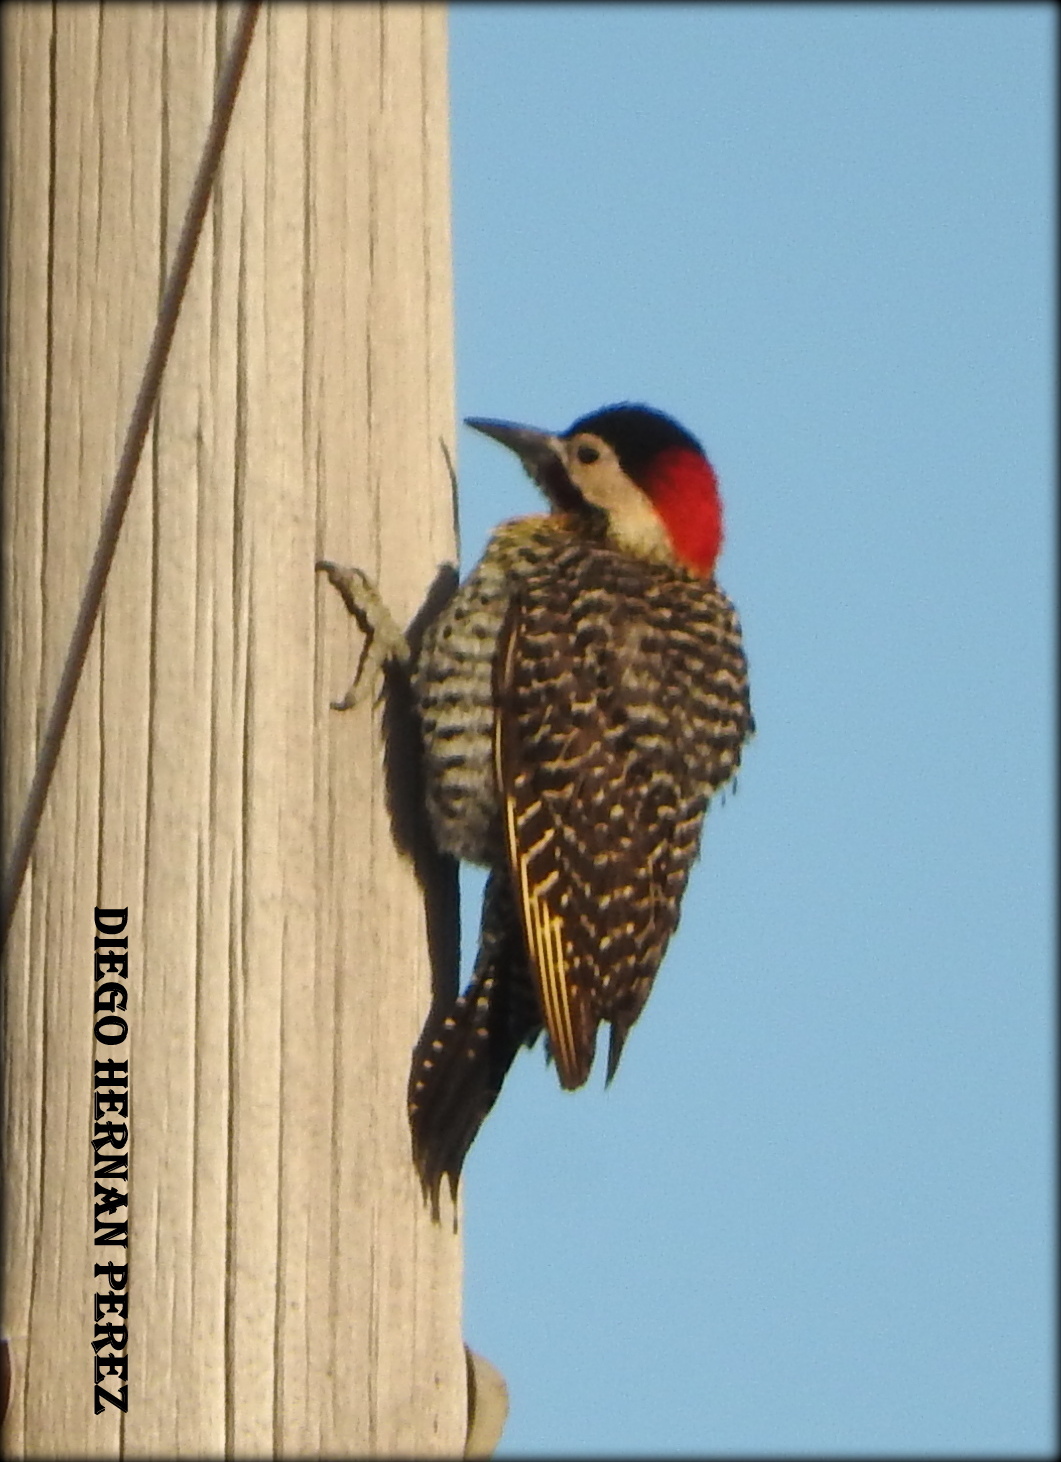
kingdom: Animalia
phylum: Chordata
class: Aves
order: Piciformes
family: Picidae
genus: Colaptes
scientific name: Colaptes melanochloros
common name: Green-barred woodpecker
